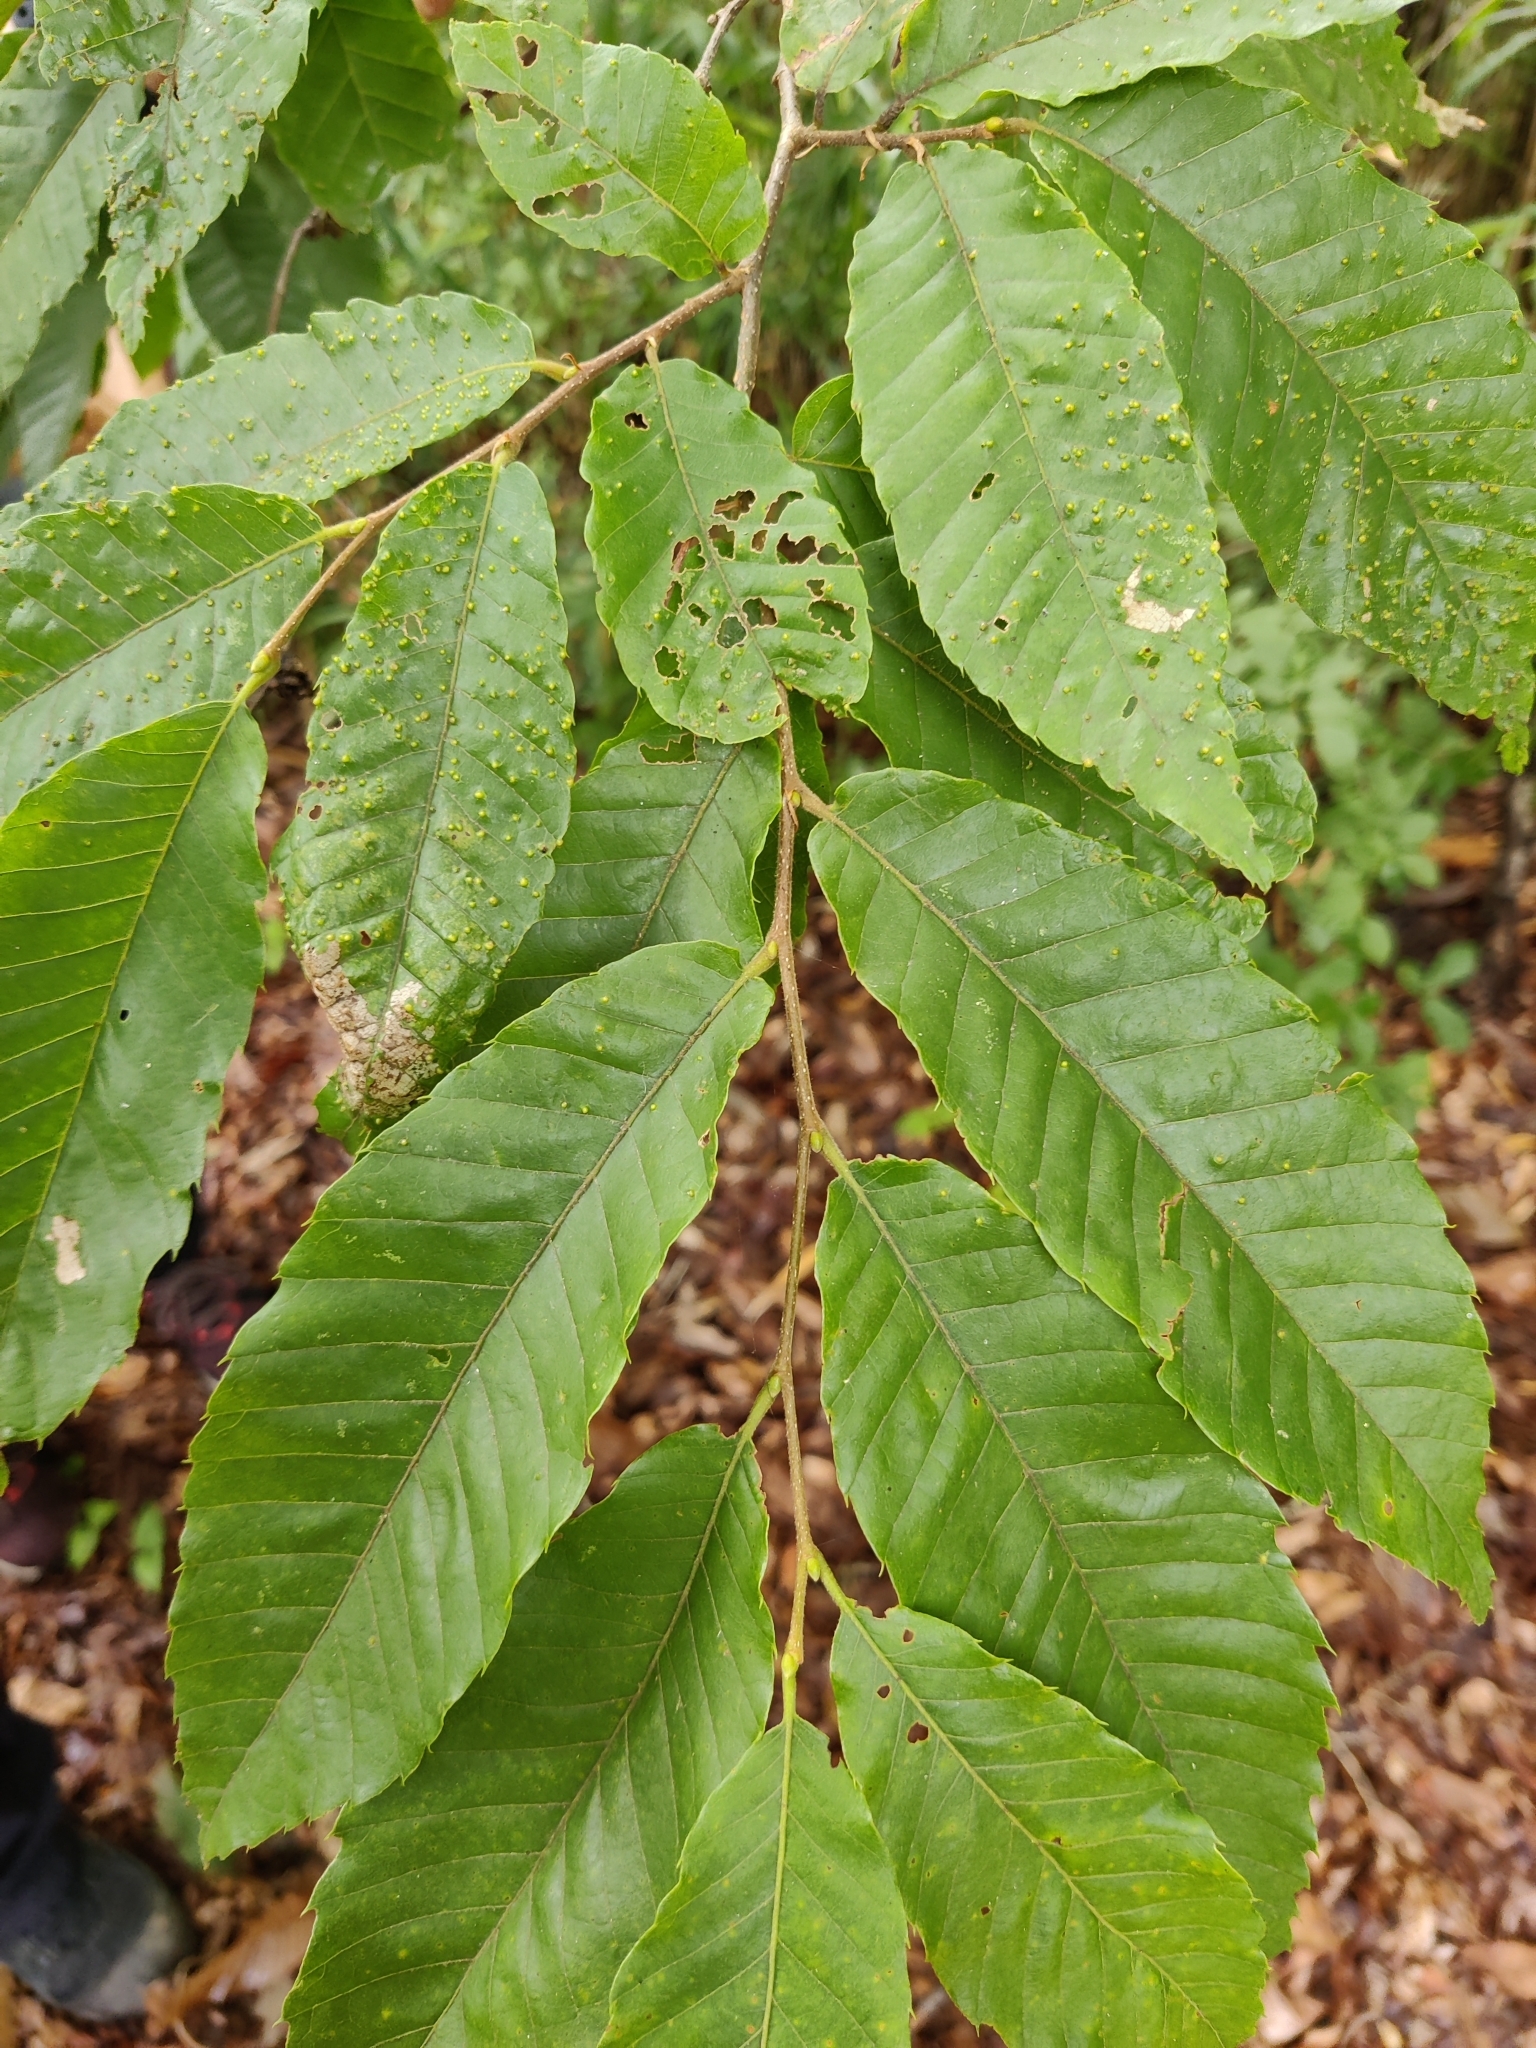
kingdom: Plantae
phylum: Tracheophyta
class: Magnoliopsida
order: Fagales
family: Fagaceae
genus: Castanea
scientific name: Castanea crenata
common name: Japanese chestnut
